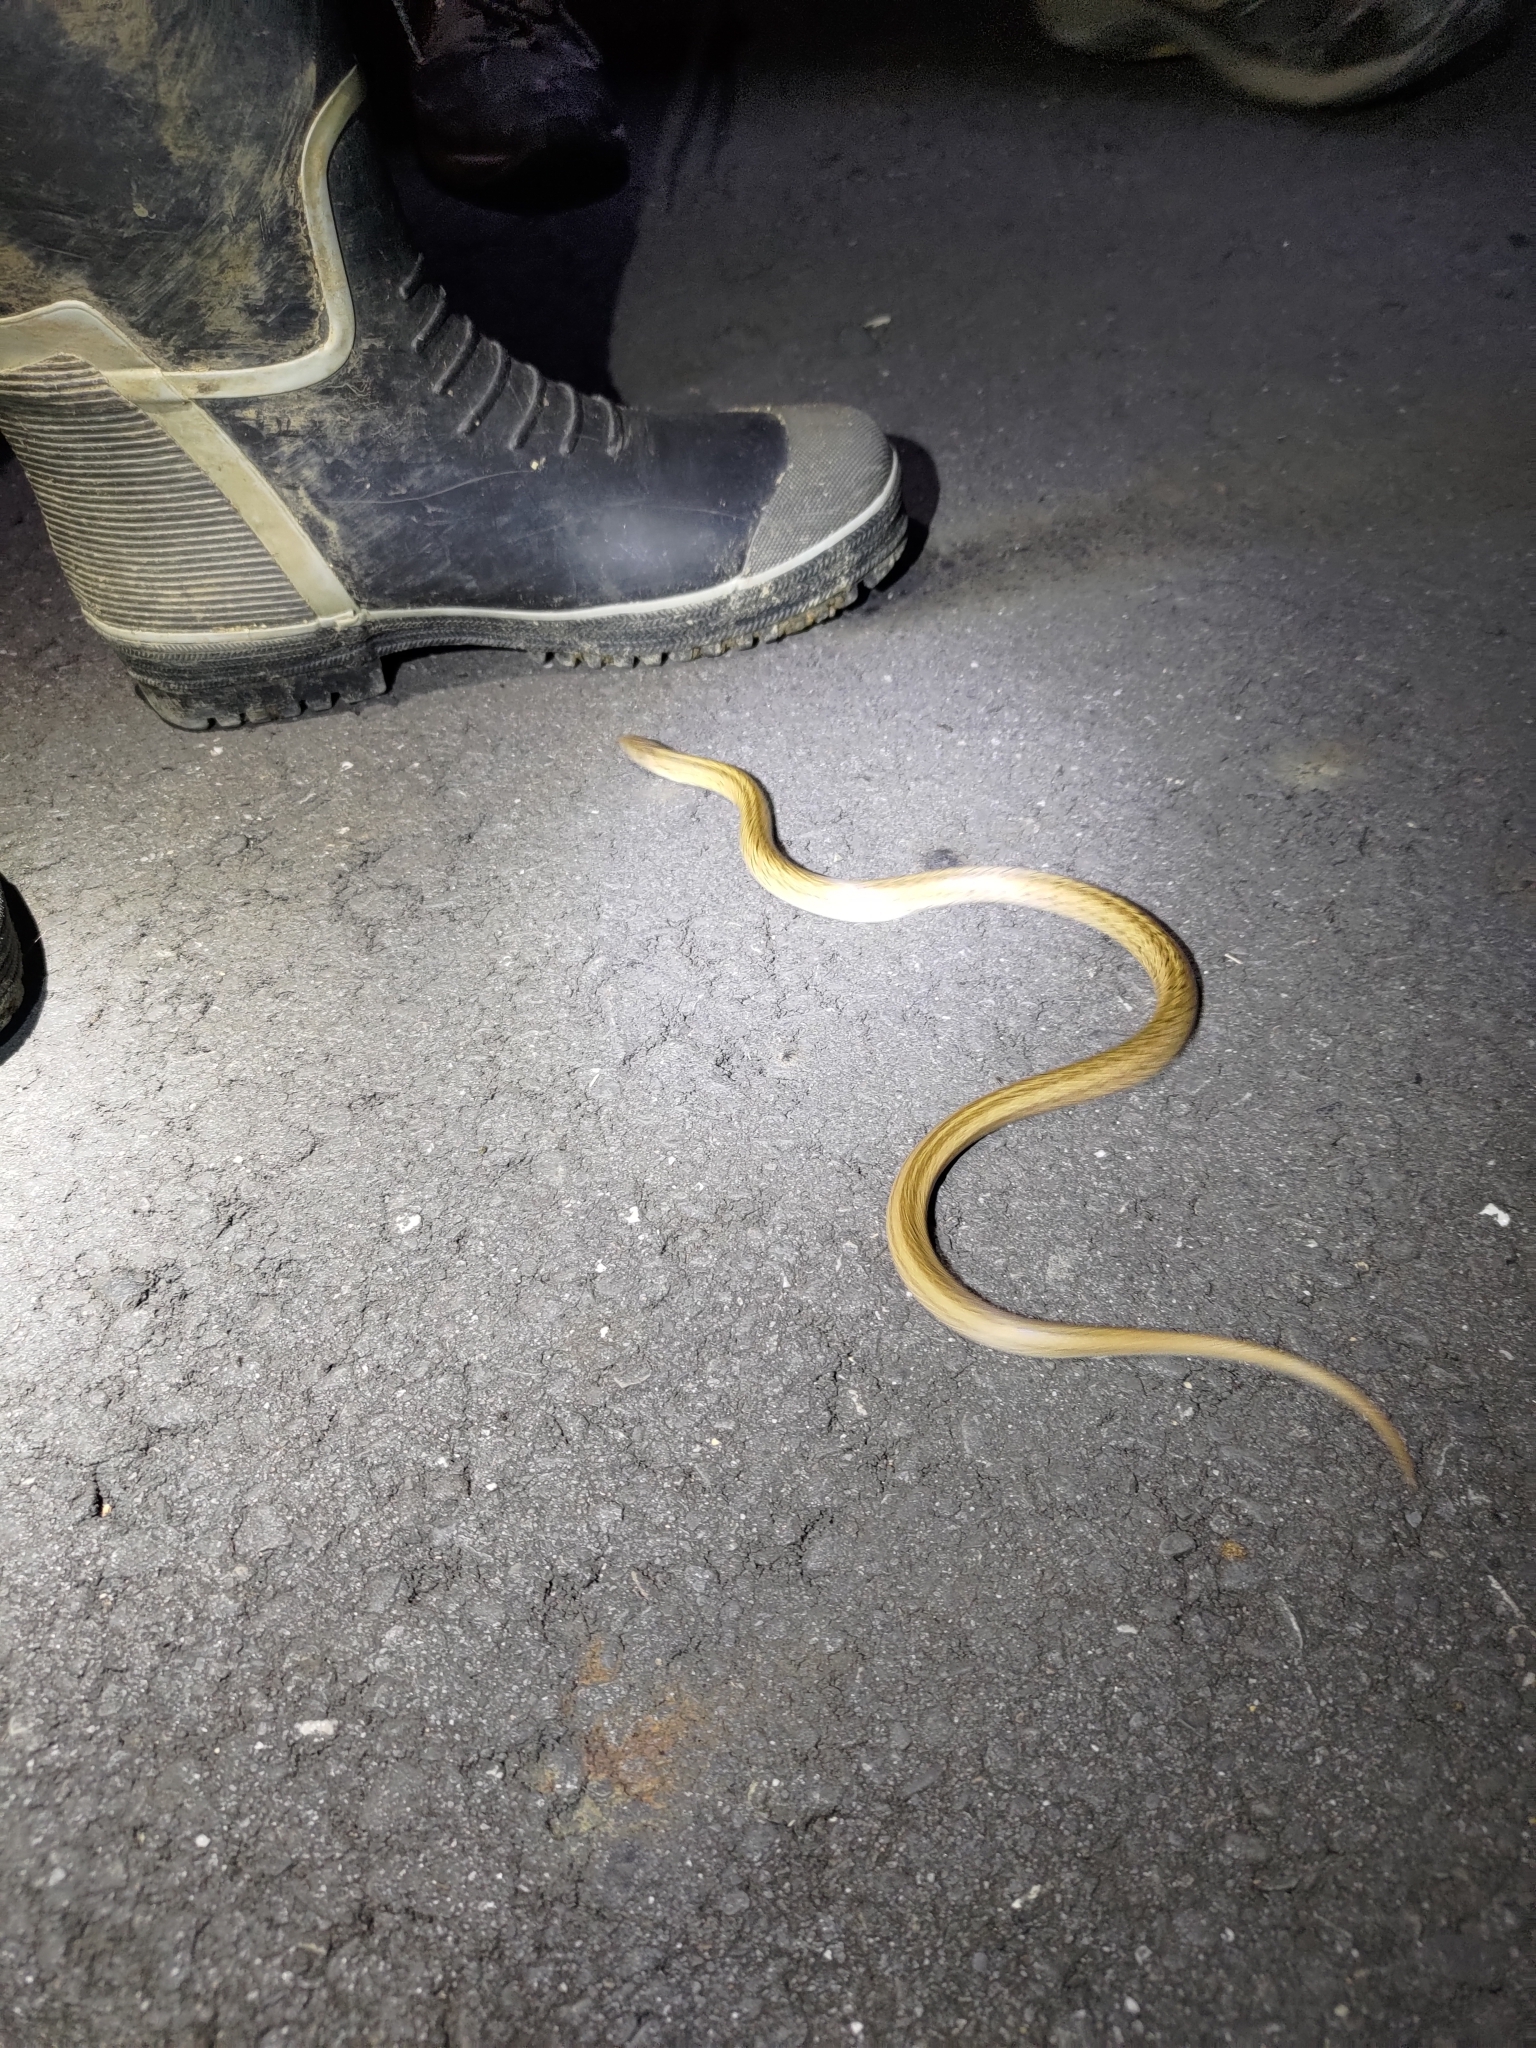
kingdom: Animalia
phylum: Chordata
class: Squamata
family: Colubridae
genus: Oligodon
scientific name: Oligodon formosanus
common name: Formosa kukri snake
